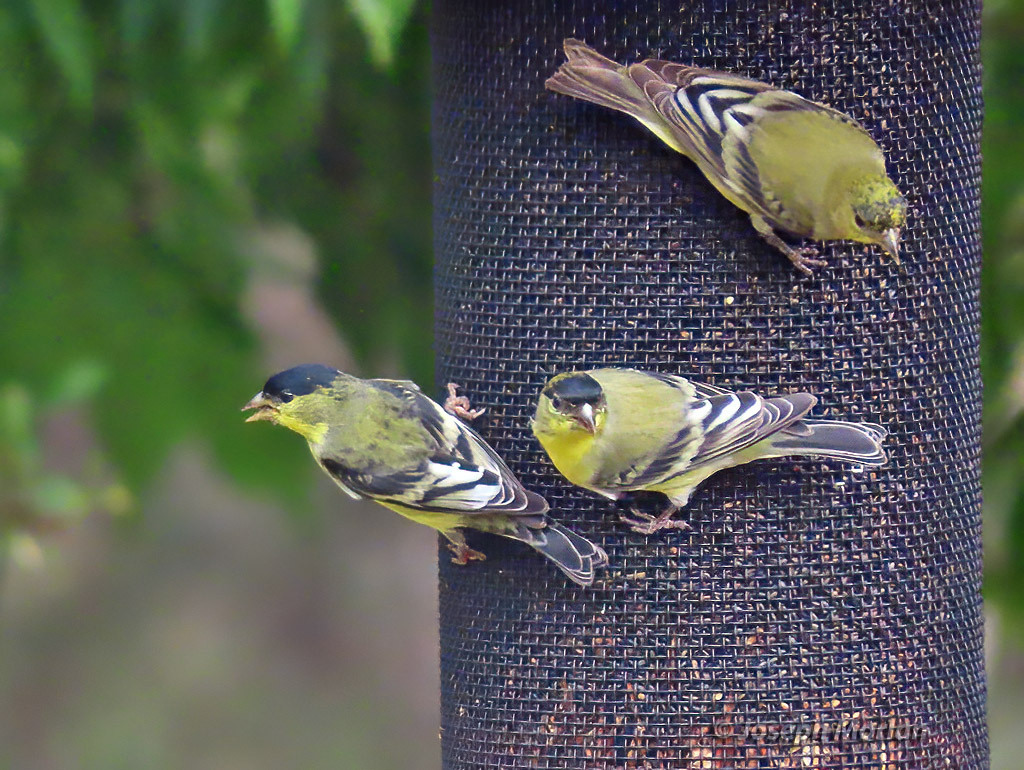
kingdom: Animalia
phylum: Chordata
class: Aves
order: Passeriformes
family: Fringillidae
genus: Spinus
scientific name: Spinus psaltria
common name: Lesser goldfinch
